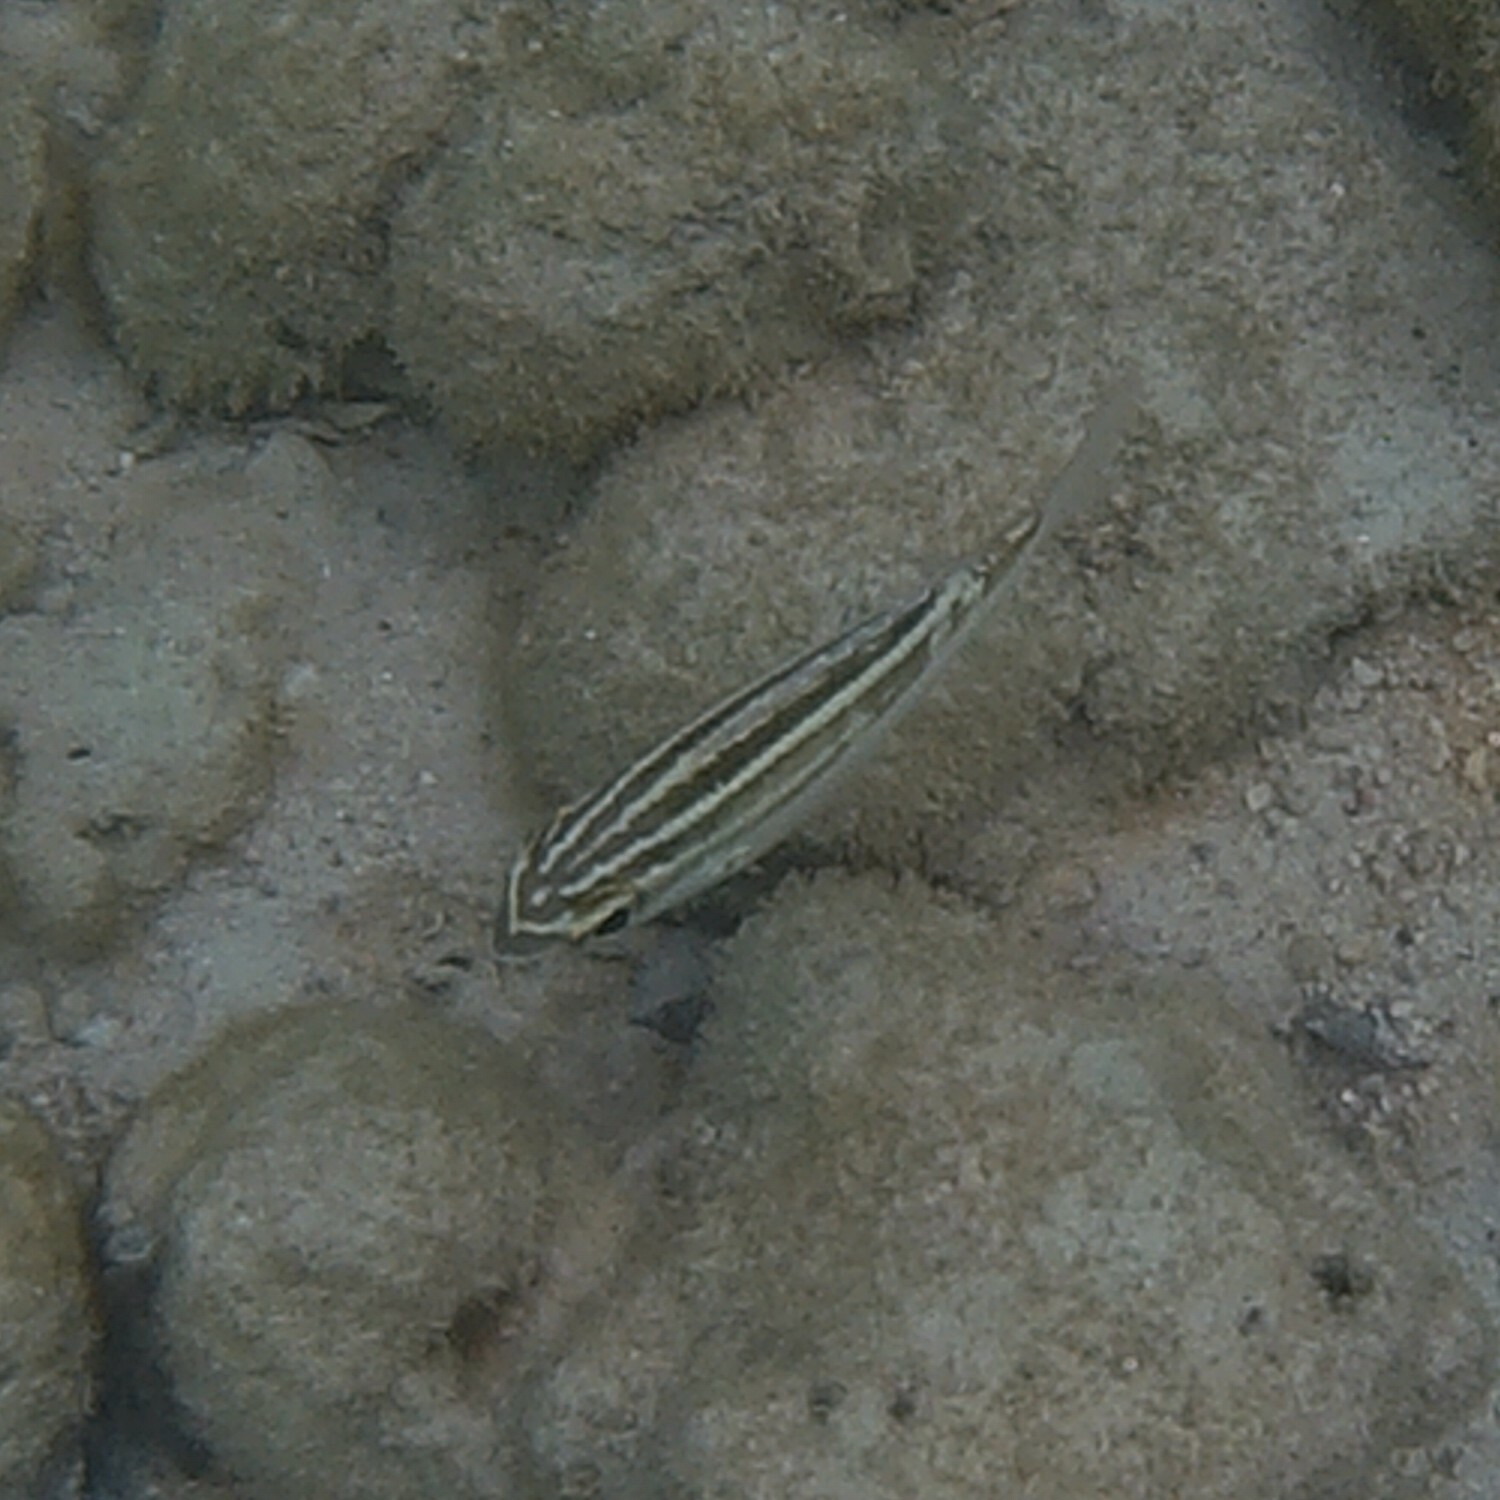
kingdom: Animalia
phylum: Chordata
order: Perciformes
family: Nemipteridae
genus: Scolopsis
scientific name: Scolopsis lineata
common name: Striped monocle bream
